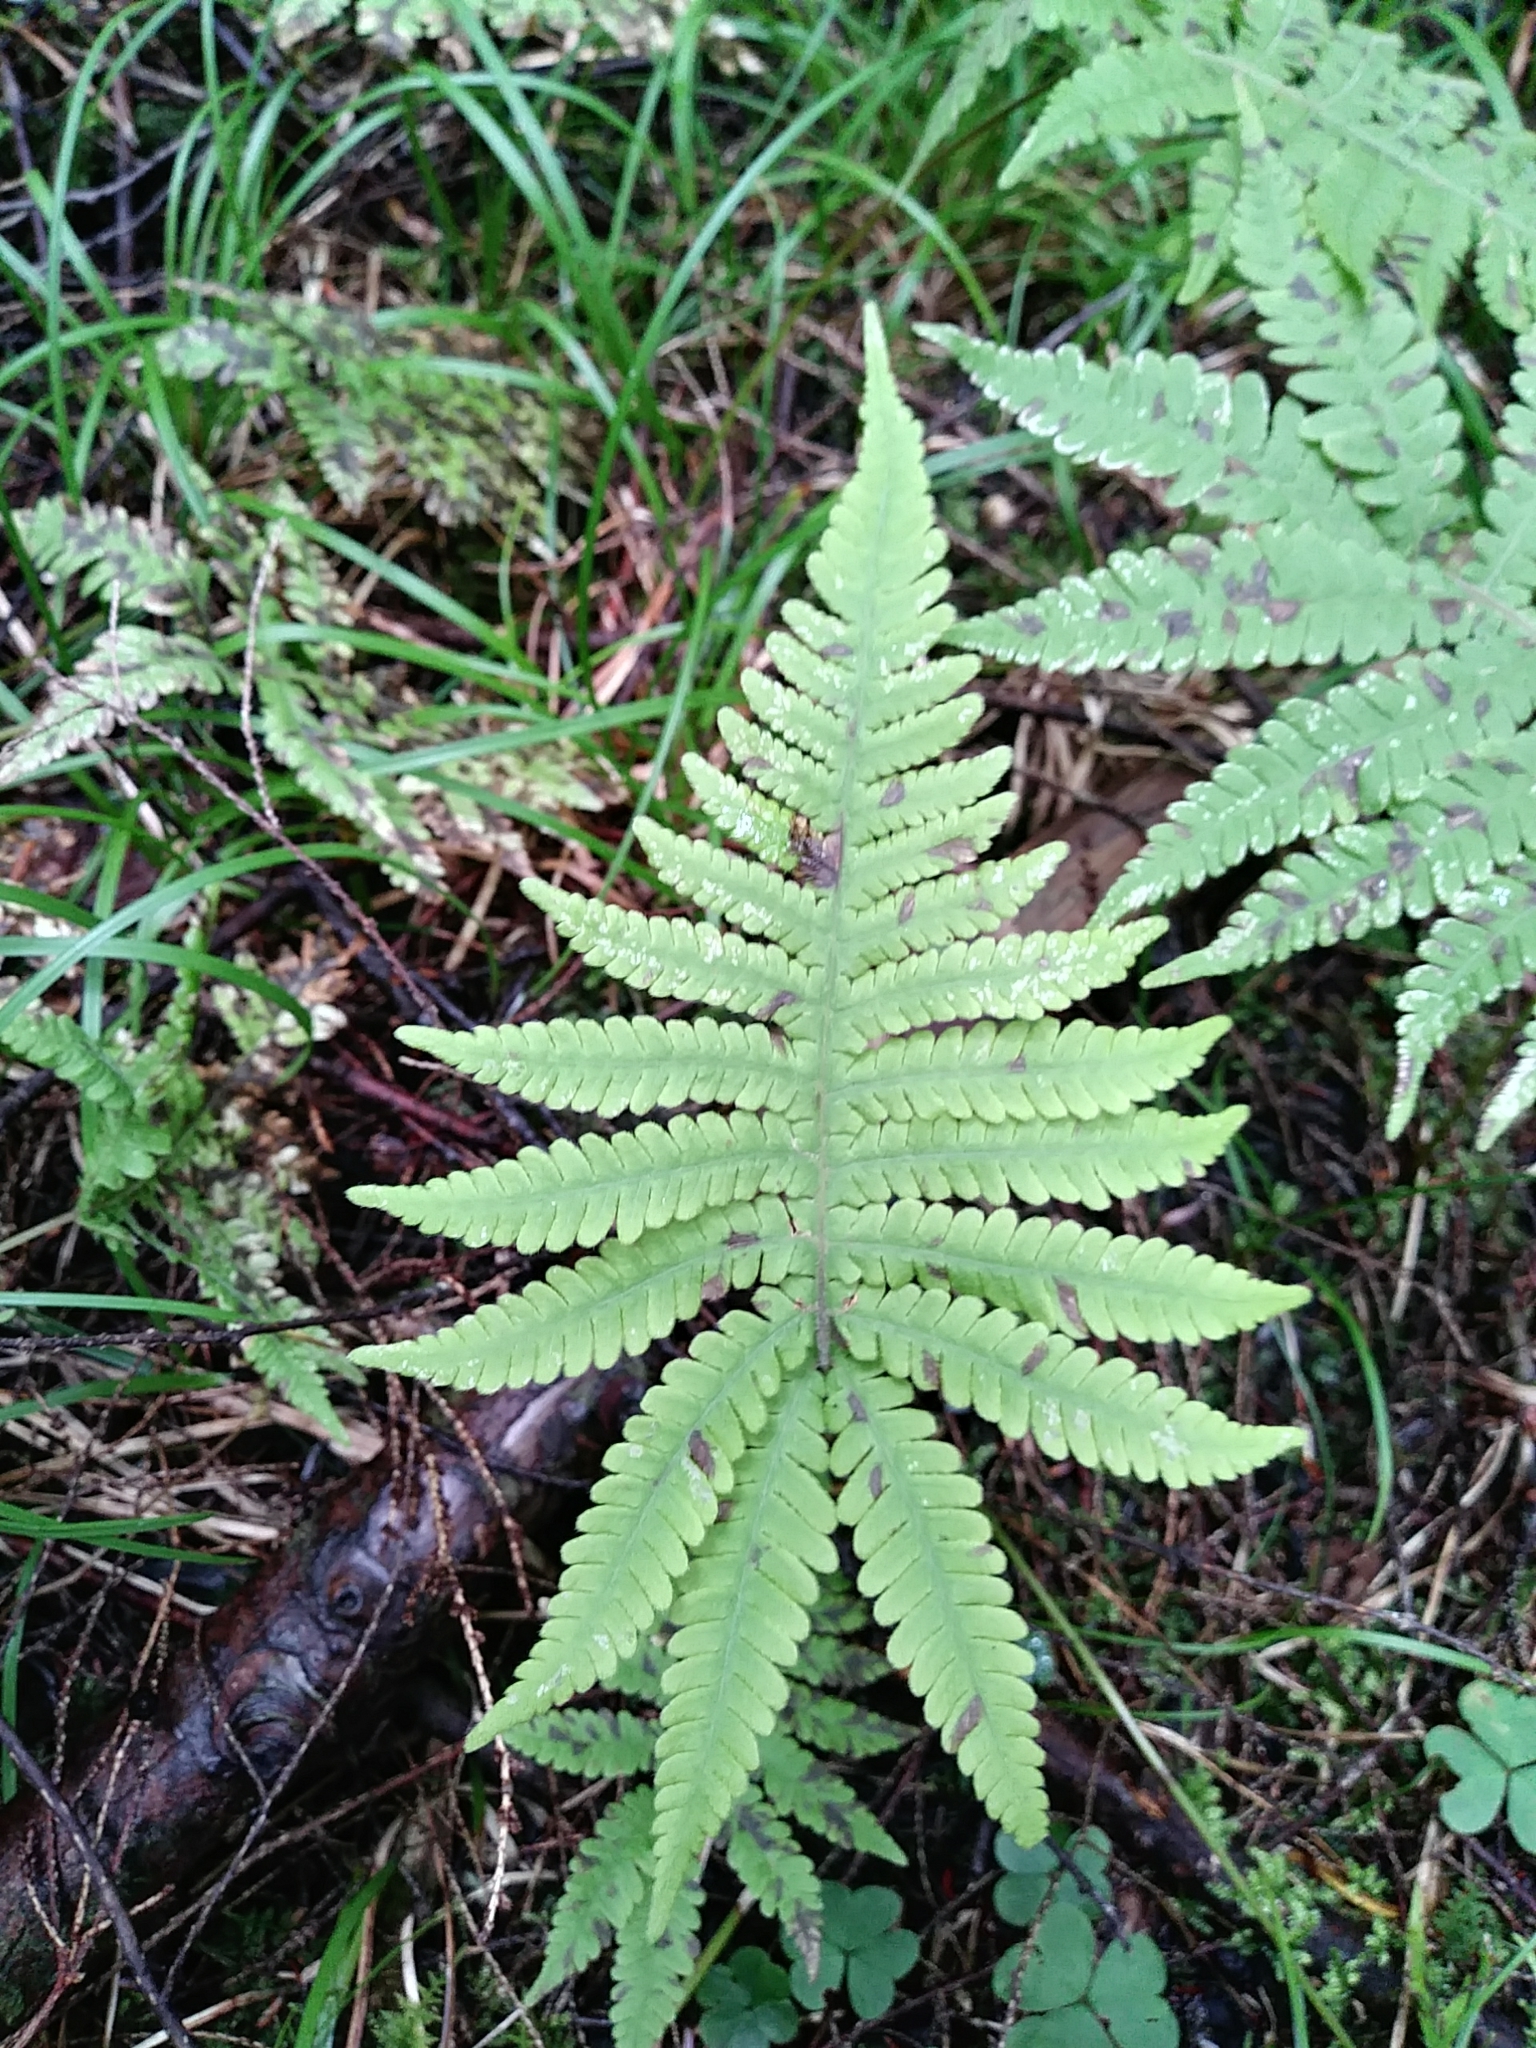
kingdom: Plantae
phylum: Tracheophyta
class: Polypodiopsida
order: Polypodiales
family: Thelypteridaceae
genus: Phegopteris
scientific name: Phegopteris connectilis
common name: Beech fern
